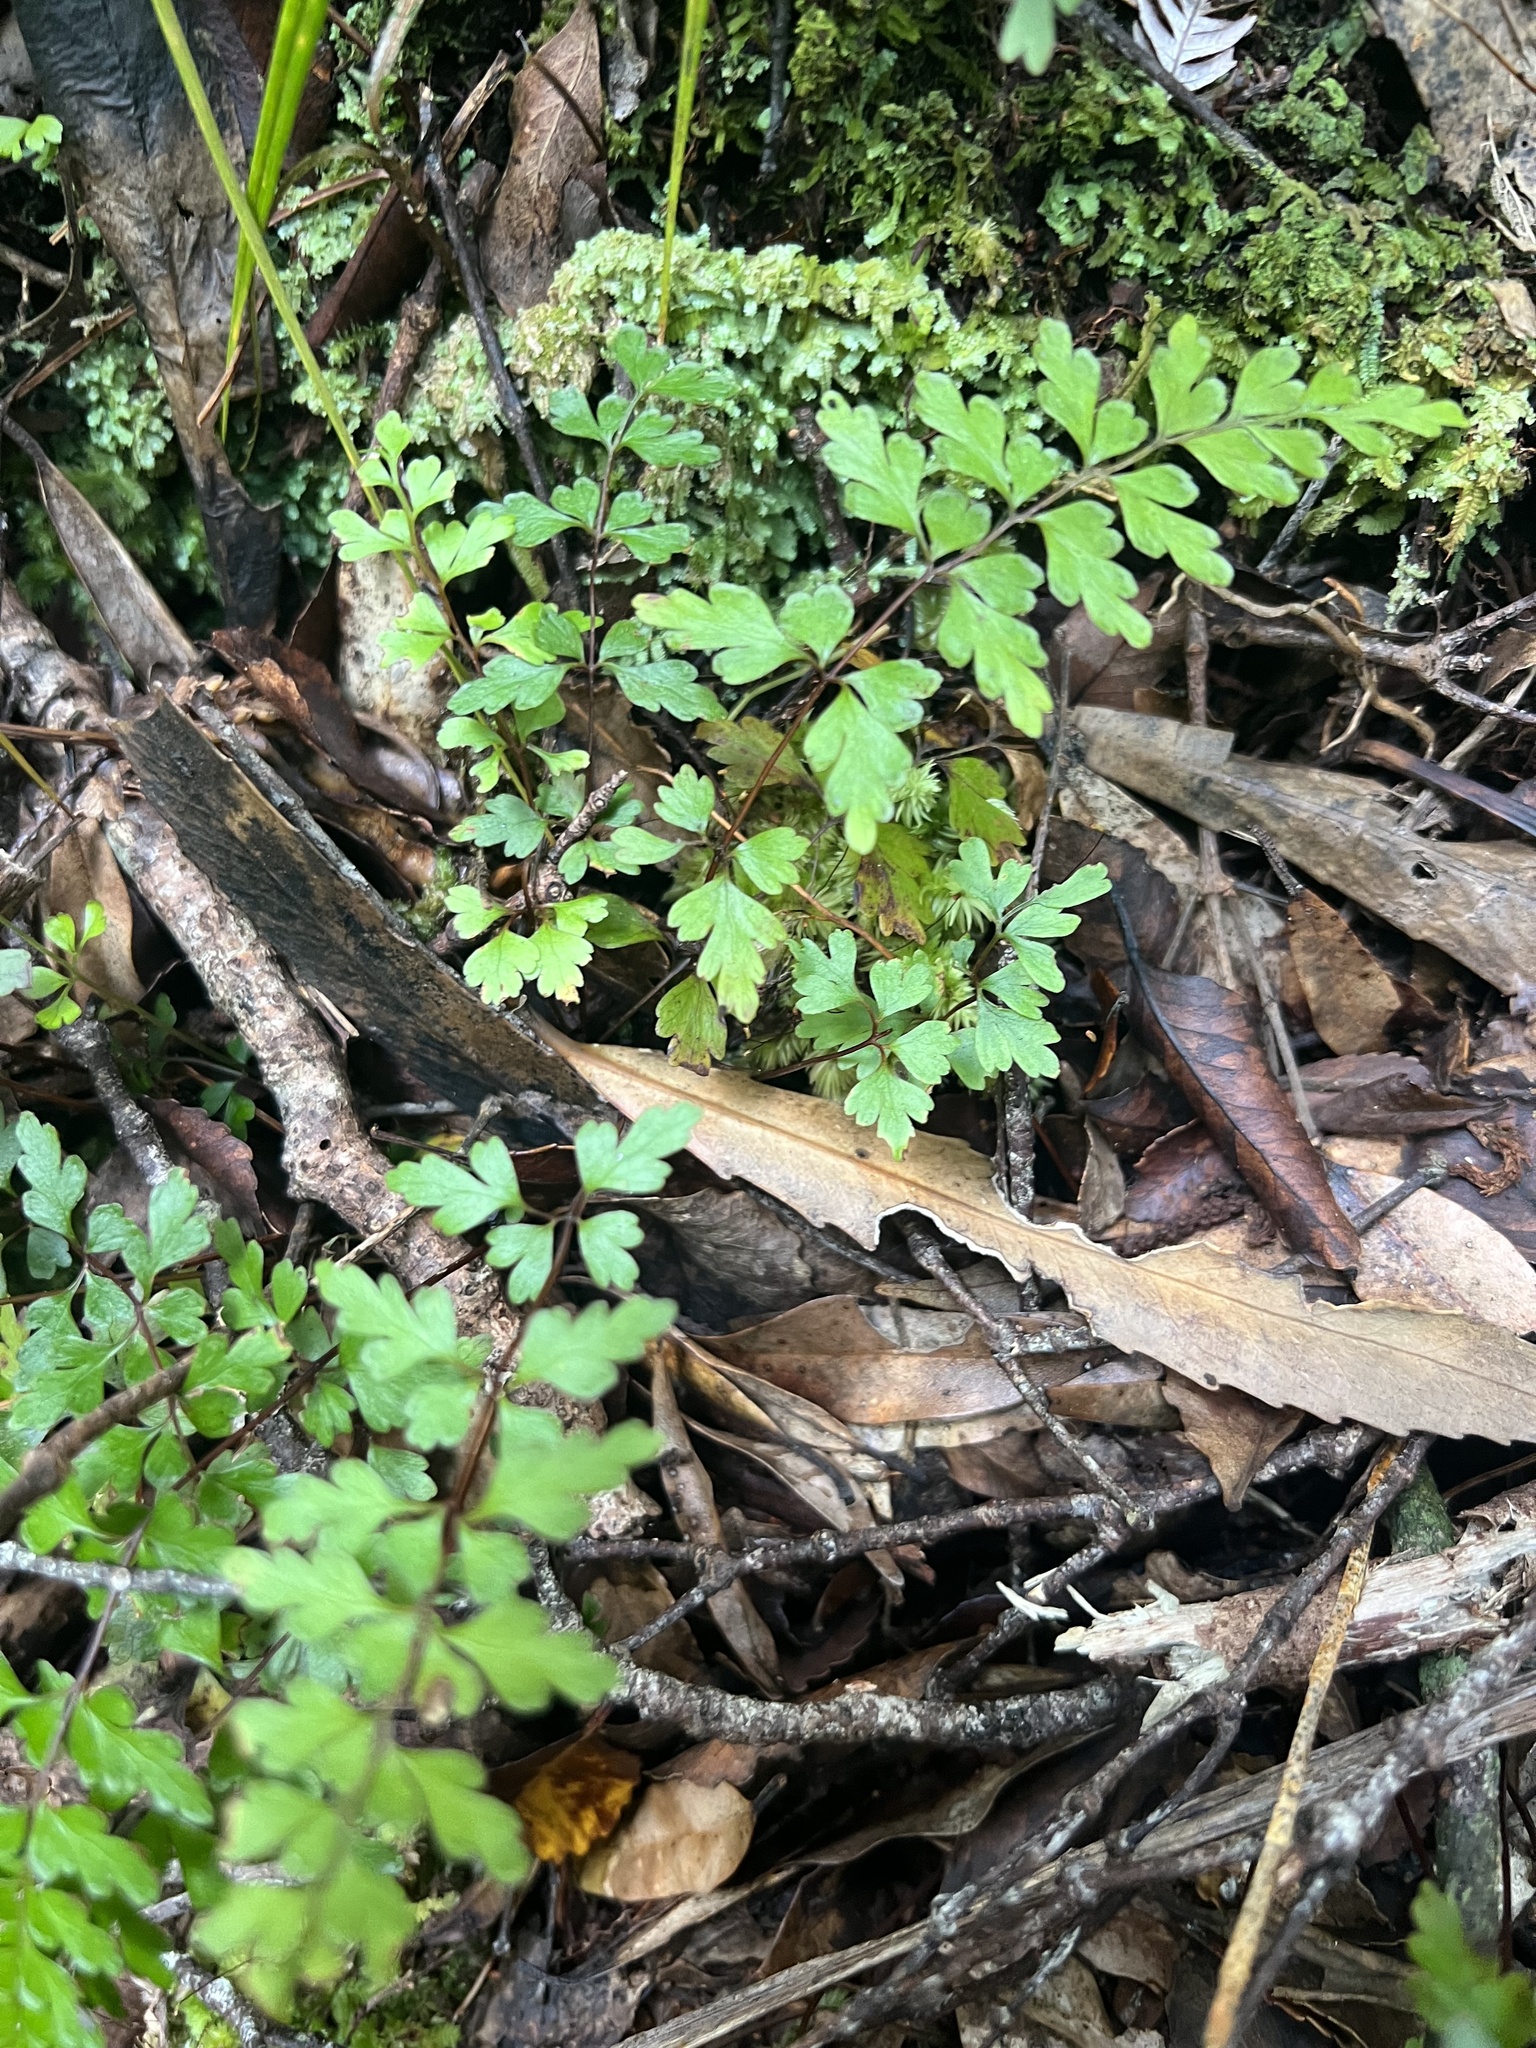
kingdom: Plantae
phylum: Tracheophyta
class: Polypodiopsida
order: Polypodiales
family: Lindsaeaceae
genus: Lindsaea
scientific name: Lindsaea trichomanoides
